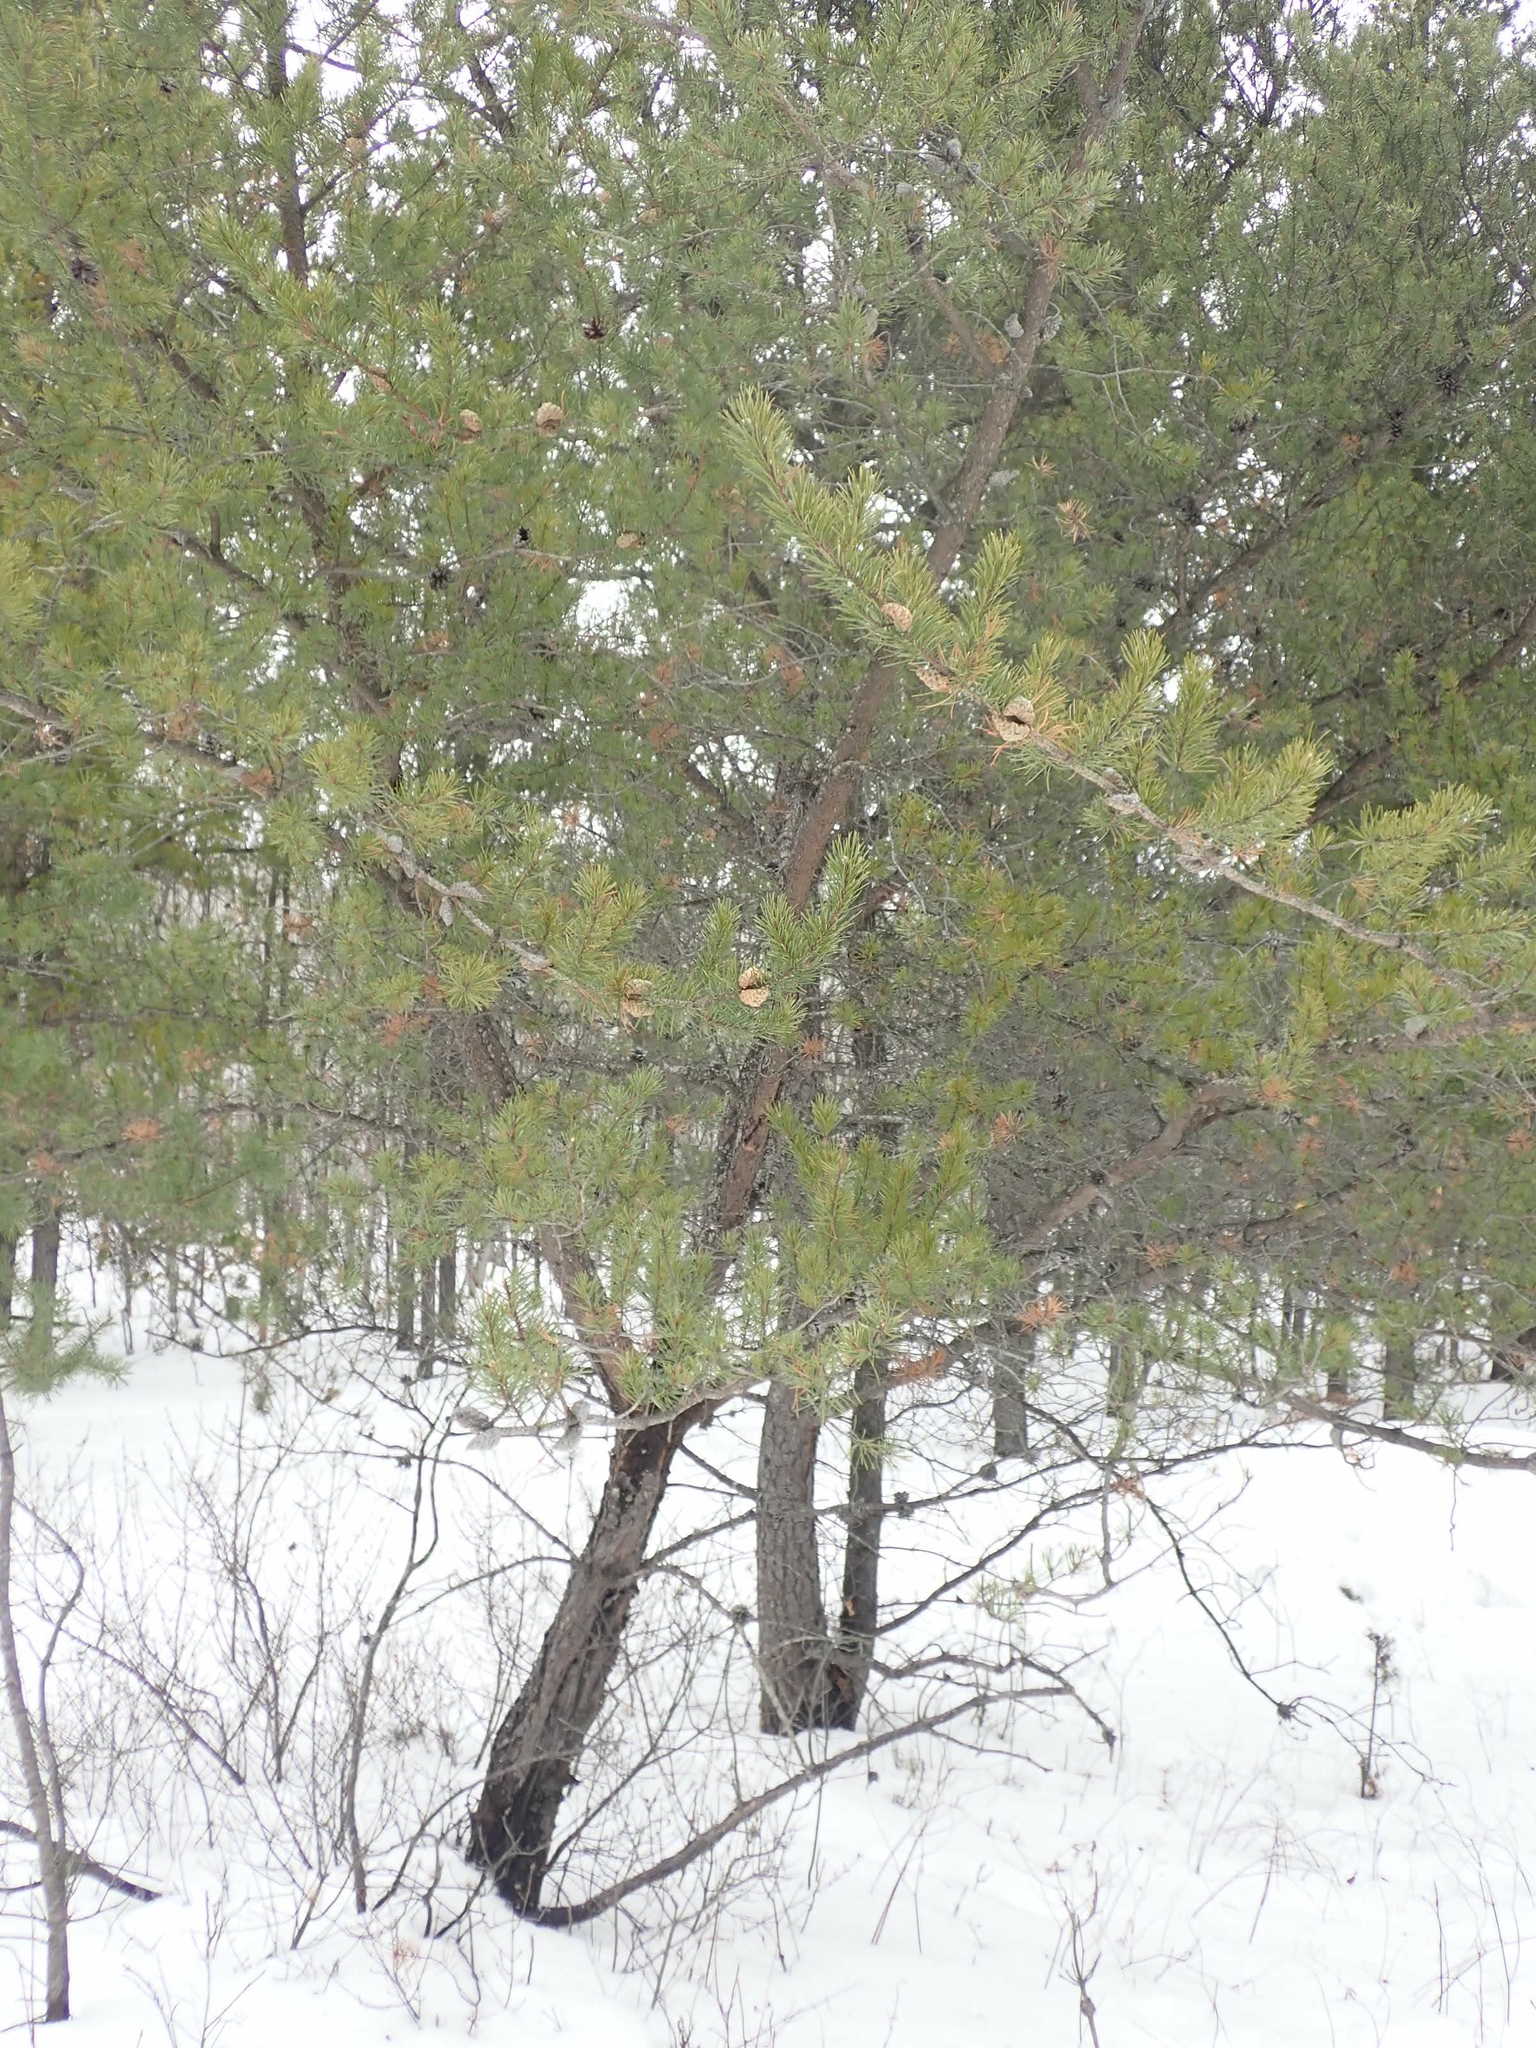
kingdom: Plantae
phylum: Tracheophyta
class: Pinopsida
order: Pinales
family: Pinaceae
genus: Pinus
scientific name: Pinus banksiana
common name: Jack pine
